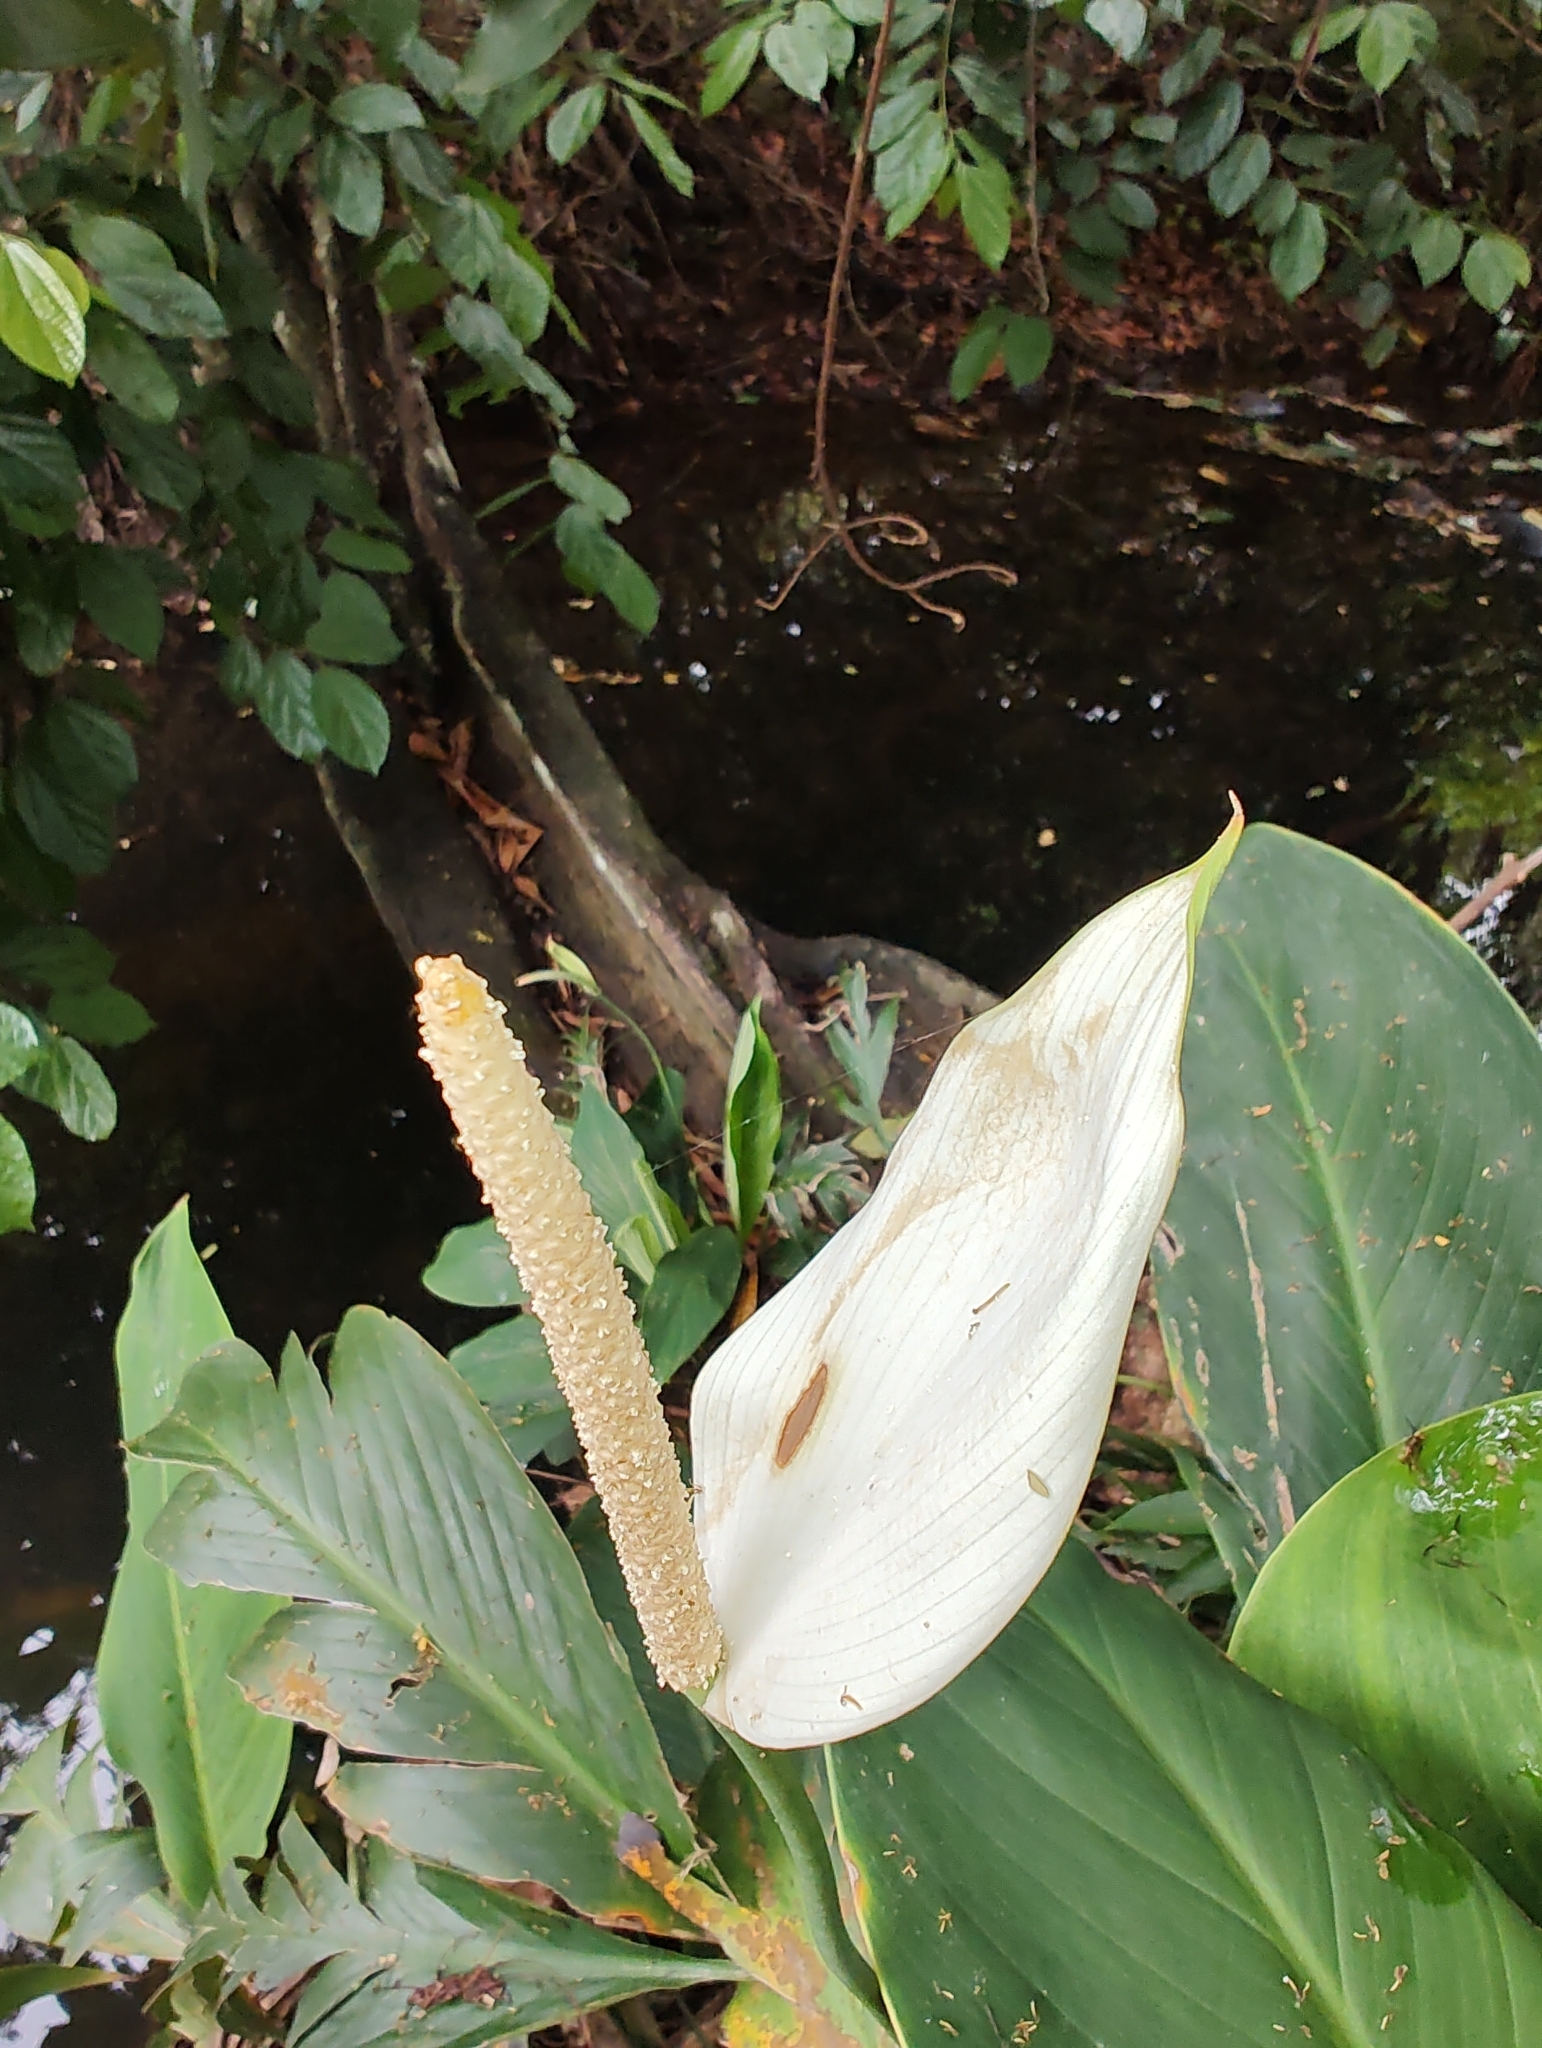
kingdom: Plantae
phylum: Tracheophyta
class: Liliopsida
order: Alismatales
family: Araceae
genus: Spathiphyllum
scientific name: Spathiphyllum cannifolium
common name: Spatheflower
